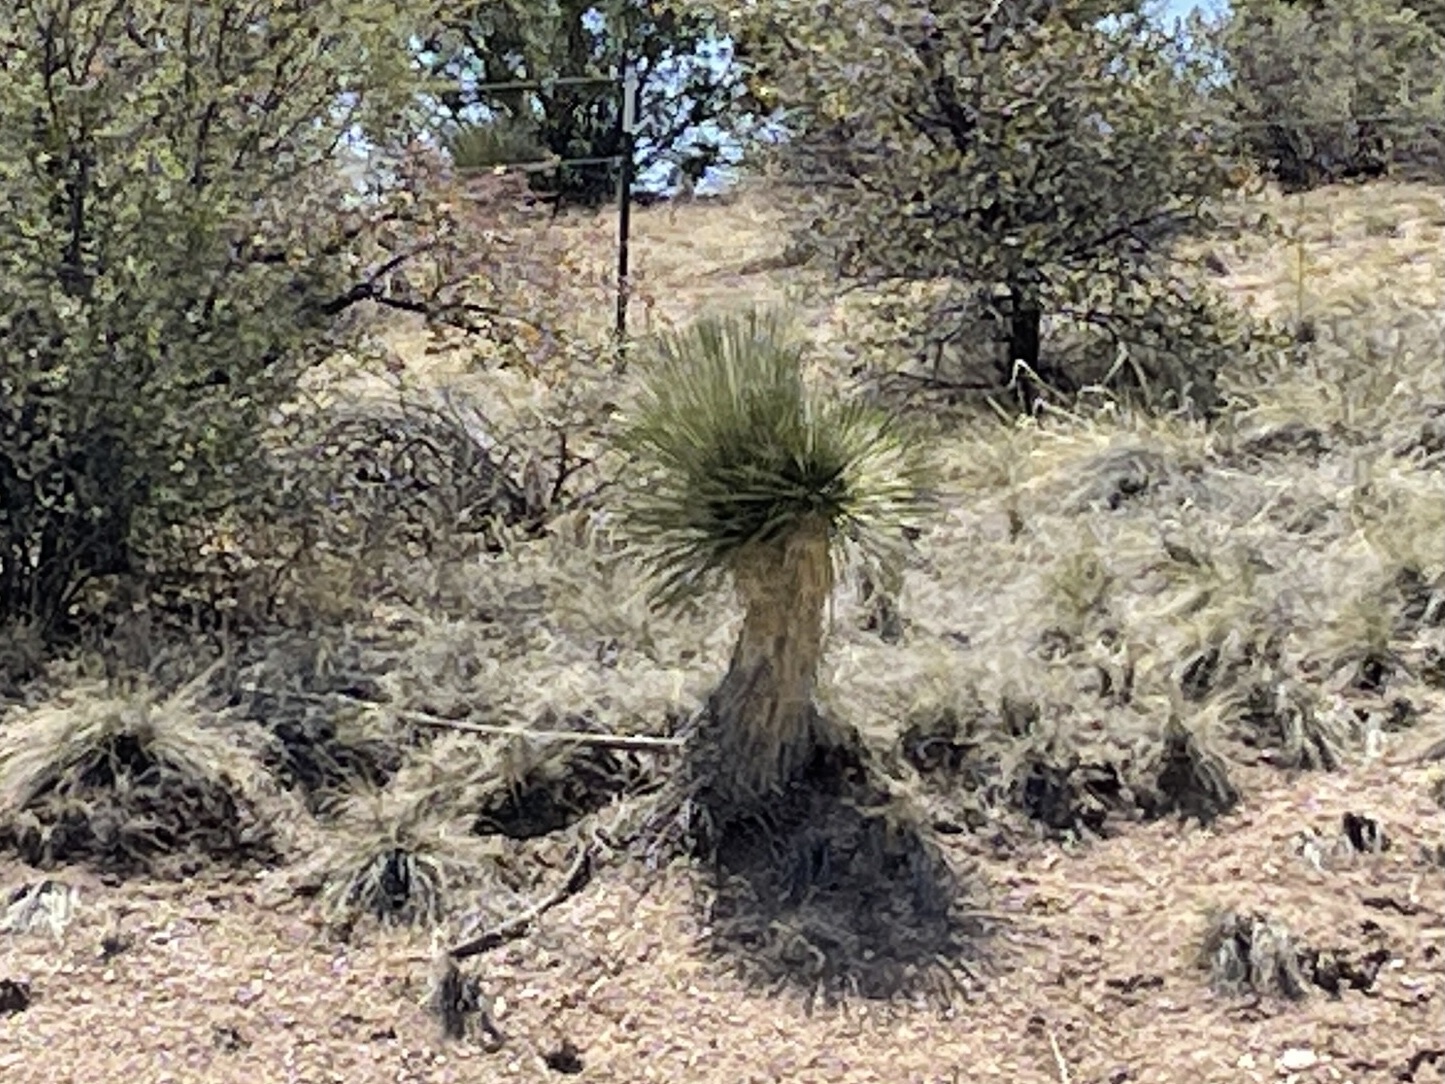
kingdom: Plantae
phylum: Tracheophyta
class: Liliopsida
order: Asparagales
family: Asparagaceae
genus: Yucca
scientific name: Yucca elata
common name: Palmella
